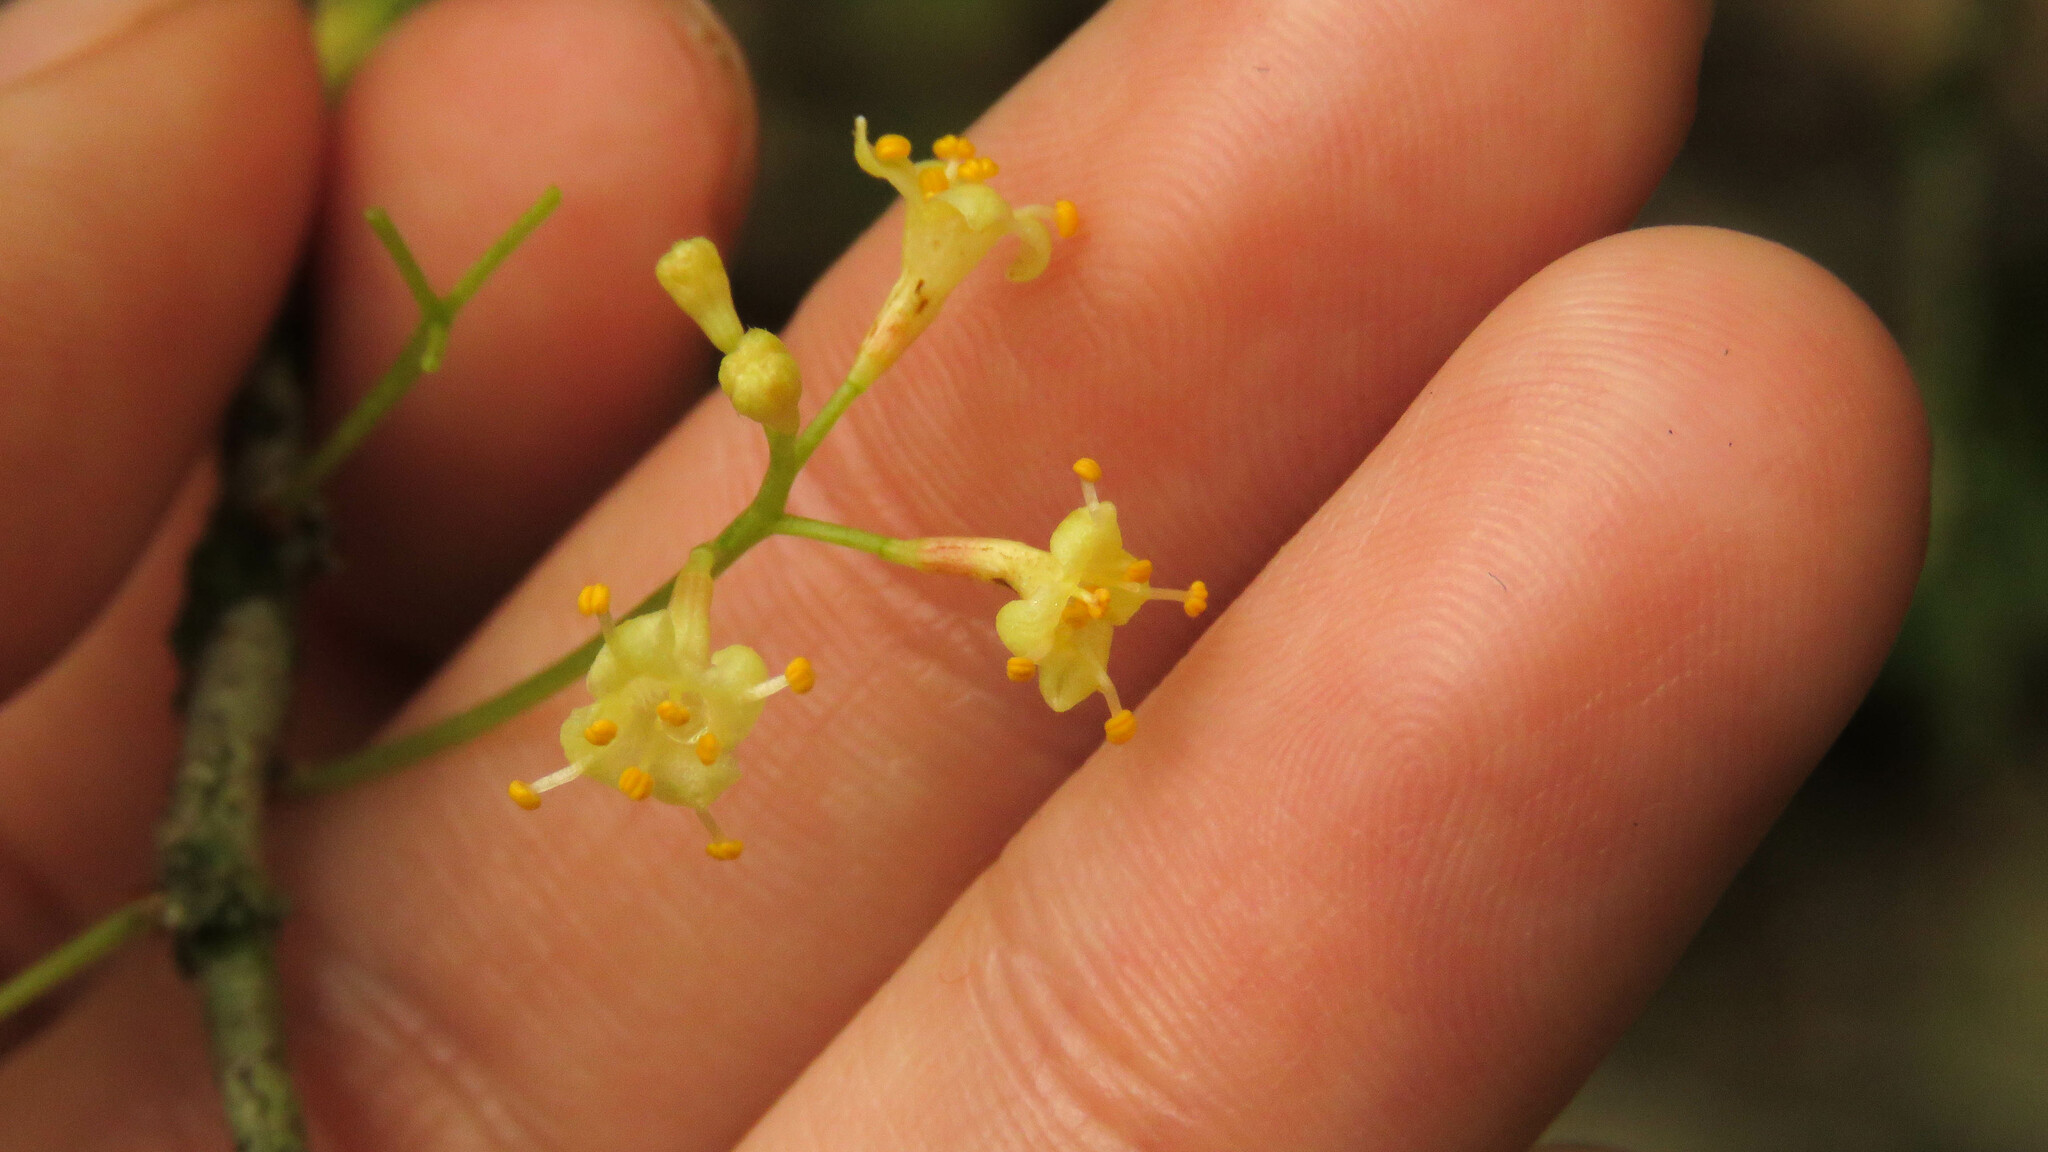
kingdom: Plantae
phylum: Tracheophyta
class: Magnoliopsida
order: Malvales
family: Thymelaeaceae
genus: Daphnopsis
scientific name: Daphnopsis racemosa
